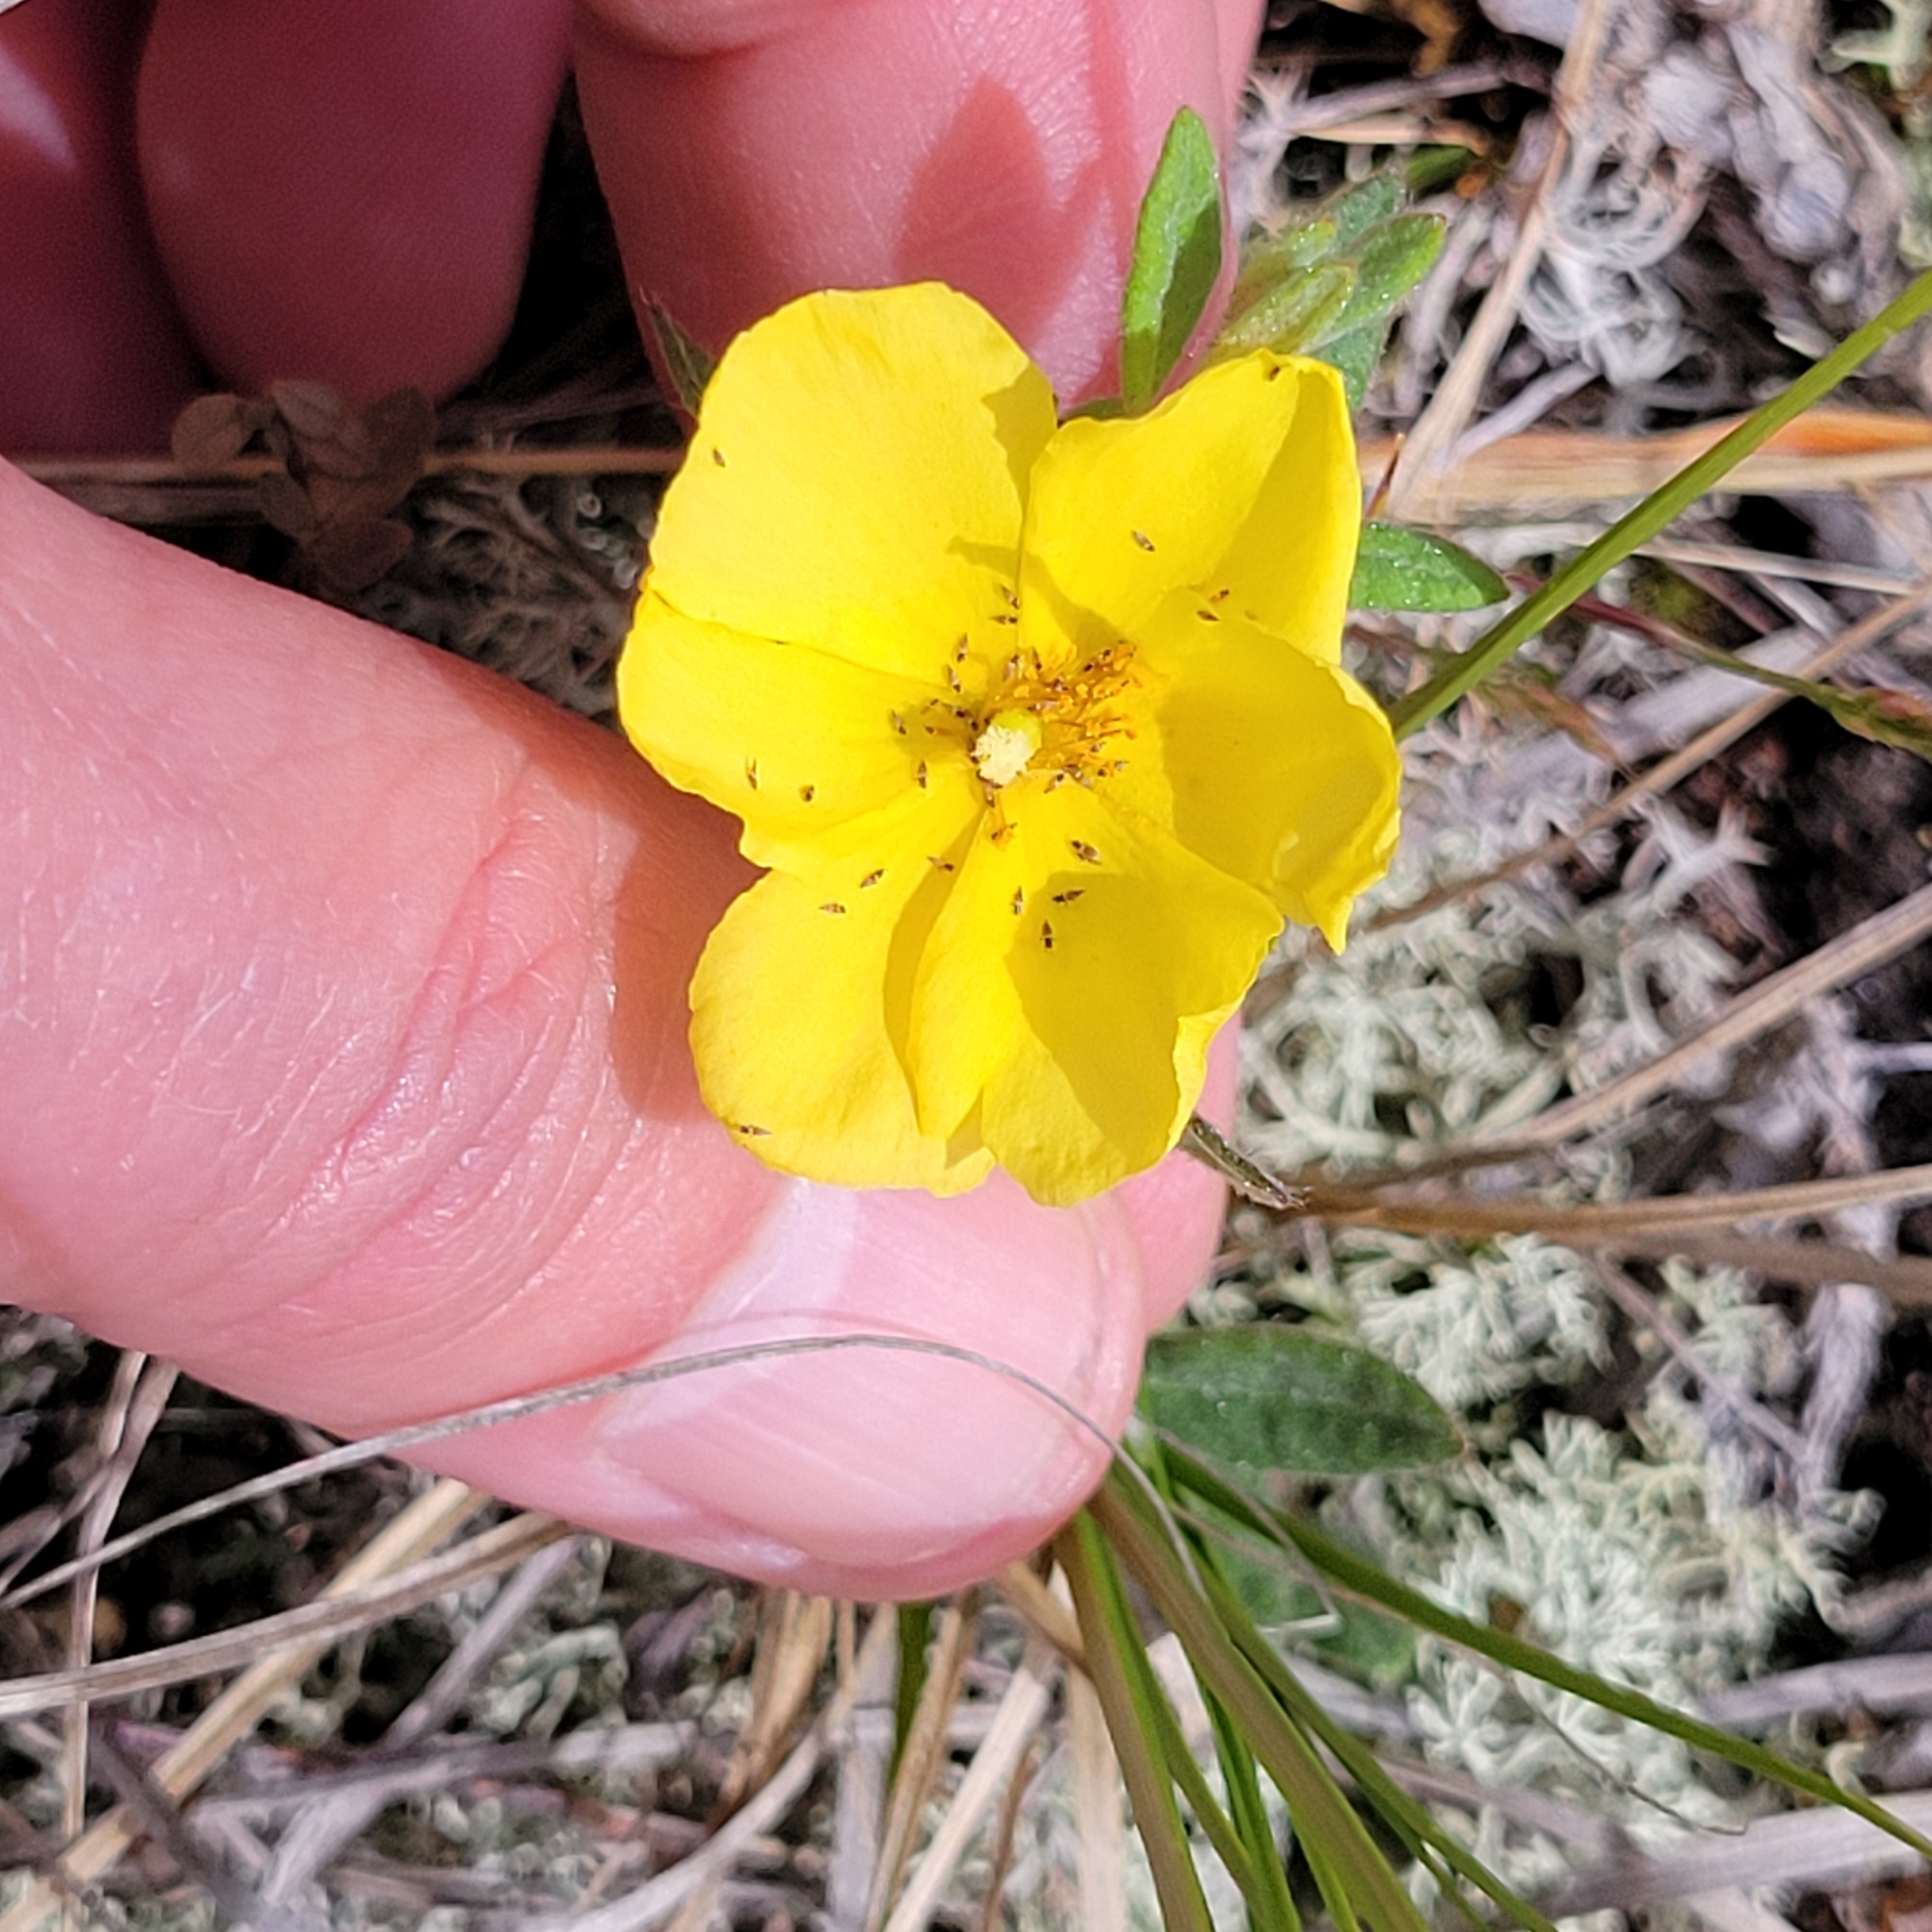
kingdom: Plantae
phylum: Tracheophyta
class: Magnoliopsida
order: Malvales
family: Cistaceae
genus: Crocanthemum
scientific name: Crocanthemum canadense
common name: Canada frostweed
